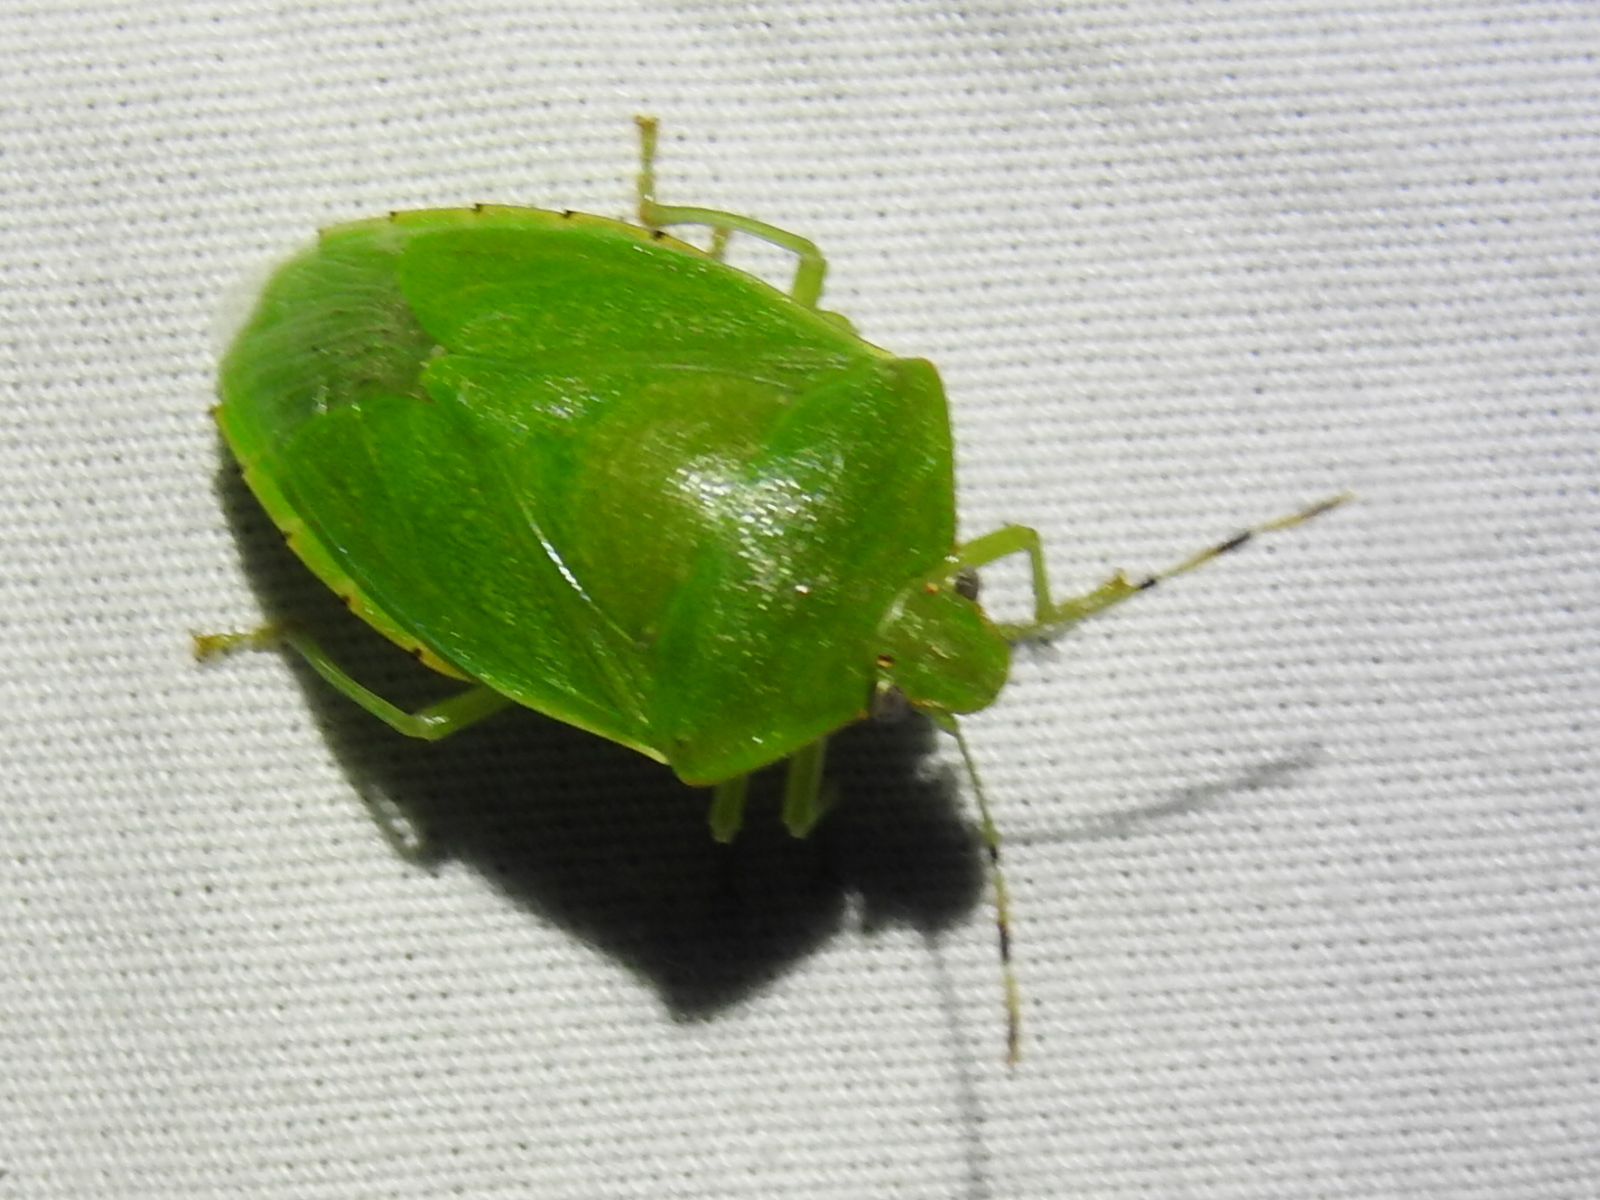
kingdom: Animalia
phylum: Arthropoda
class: Insecta
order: Hemiptera
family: Pentatomidae
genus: Chinavia
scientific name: Chinavia hilaris
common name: Green stink bug
